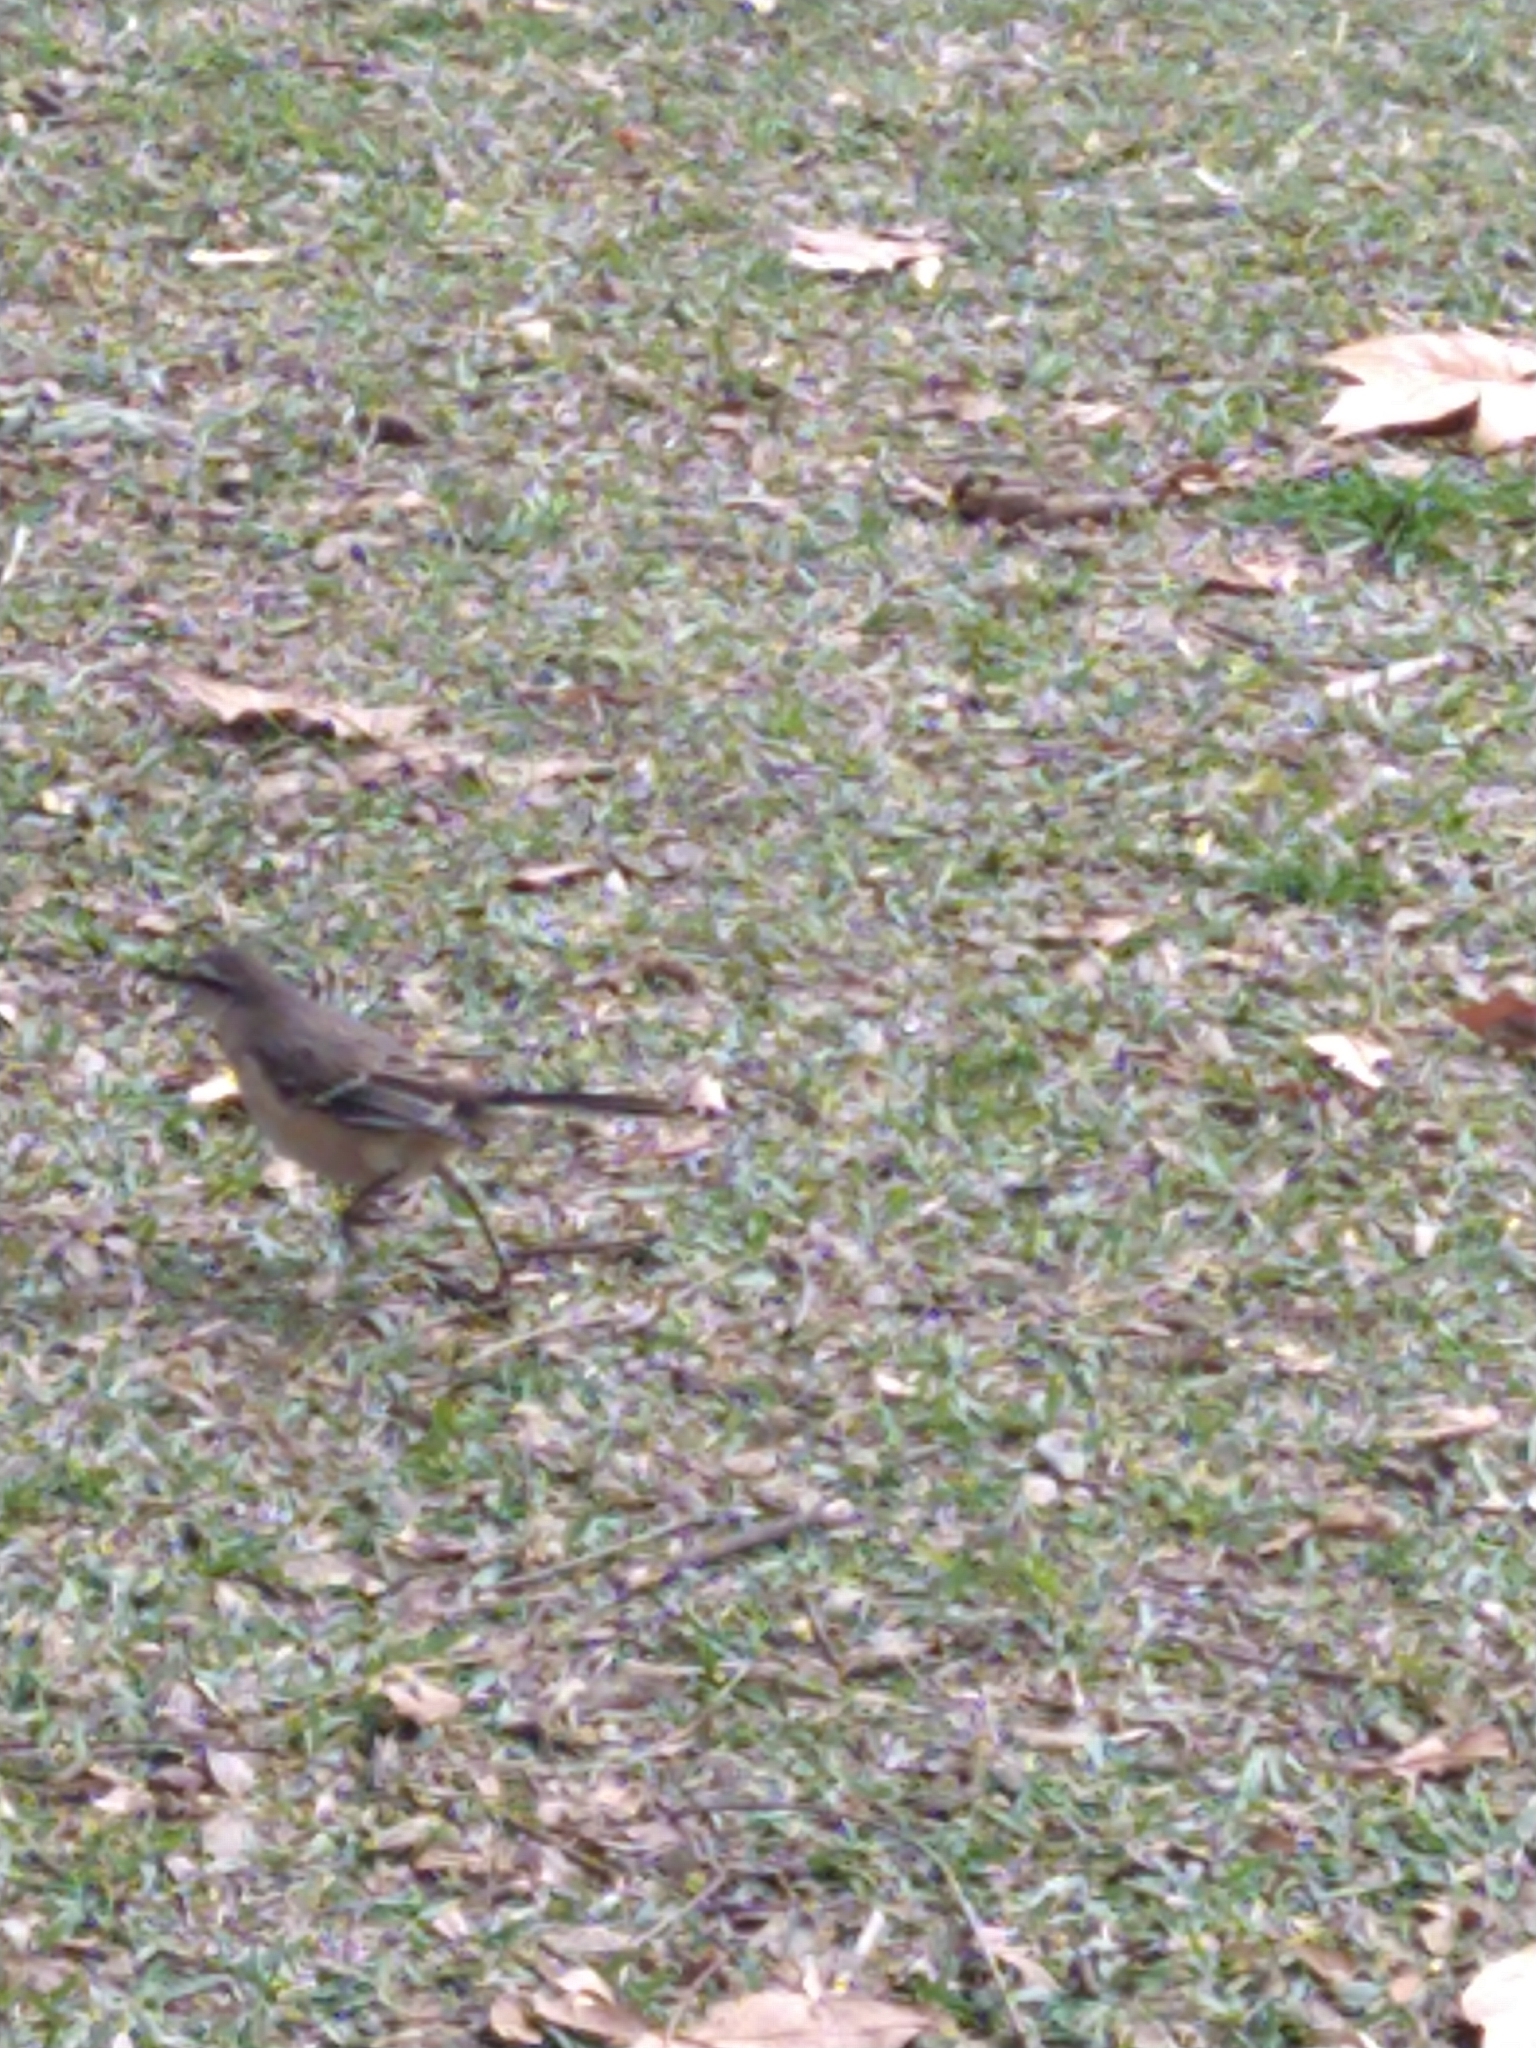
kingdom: Animalia
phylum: Chordata
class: Aves
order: Passeriformes
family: Mimidae
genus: Mimus
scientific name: Mimus saturninus
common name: Chalk-browed mockingbird
